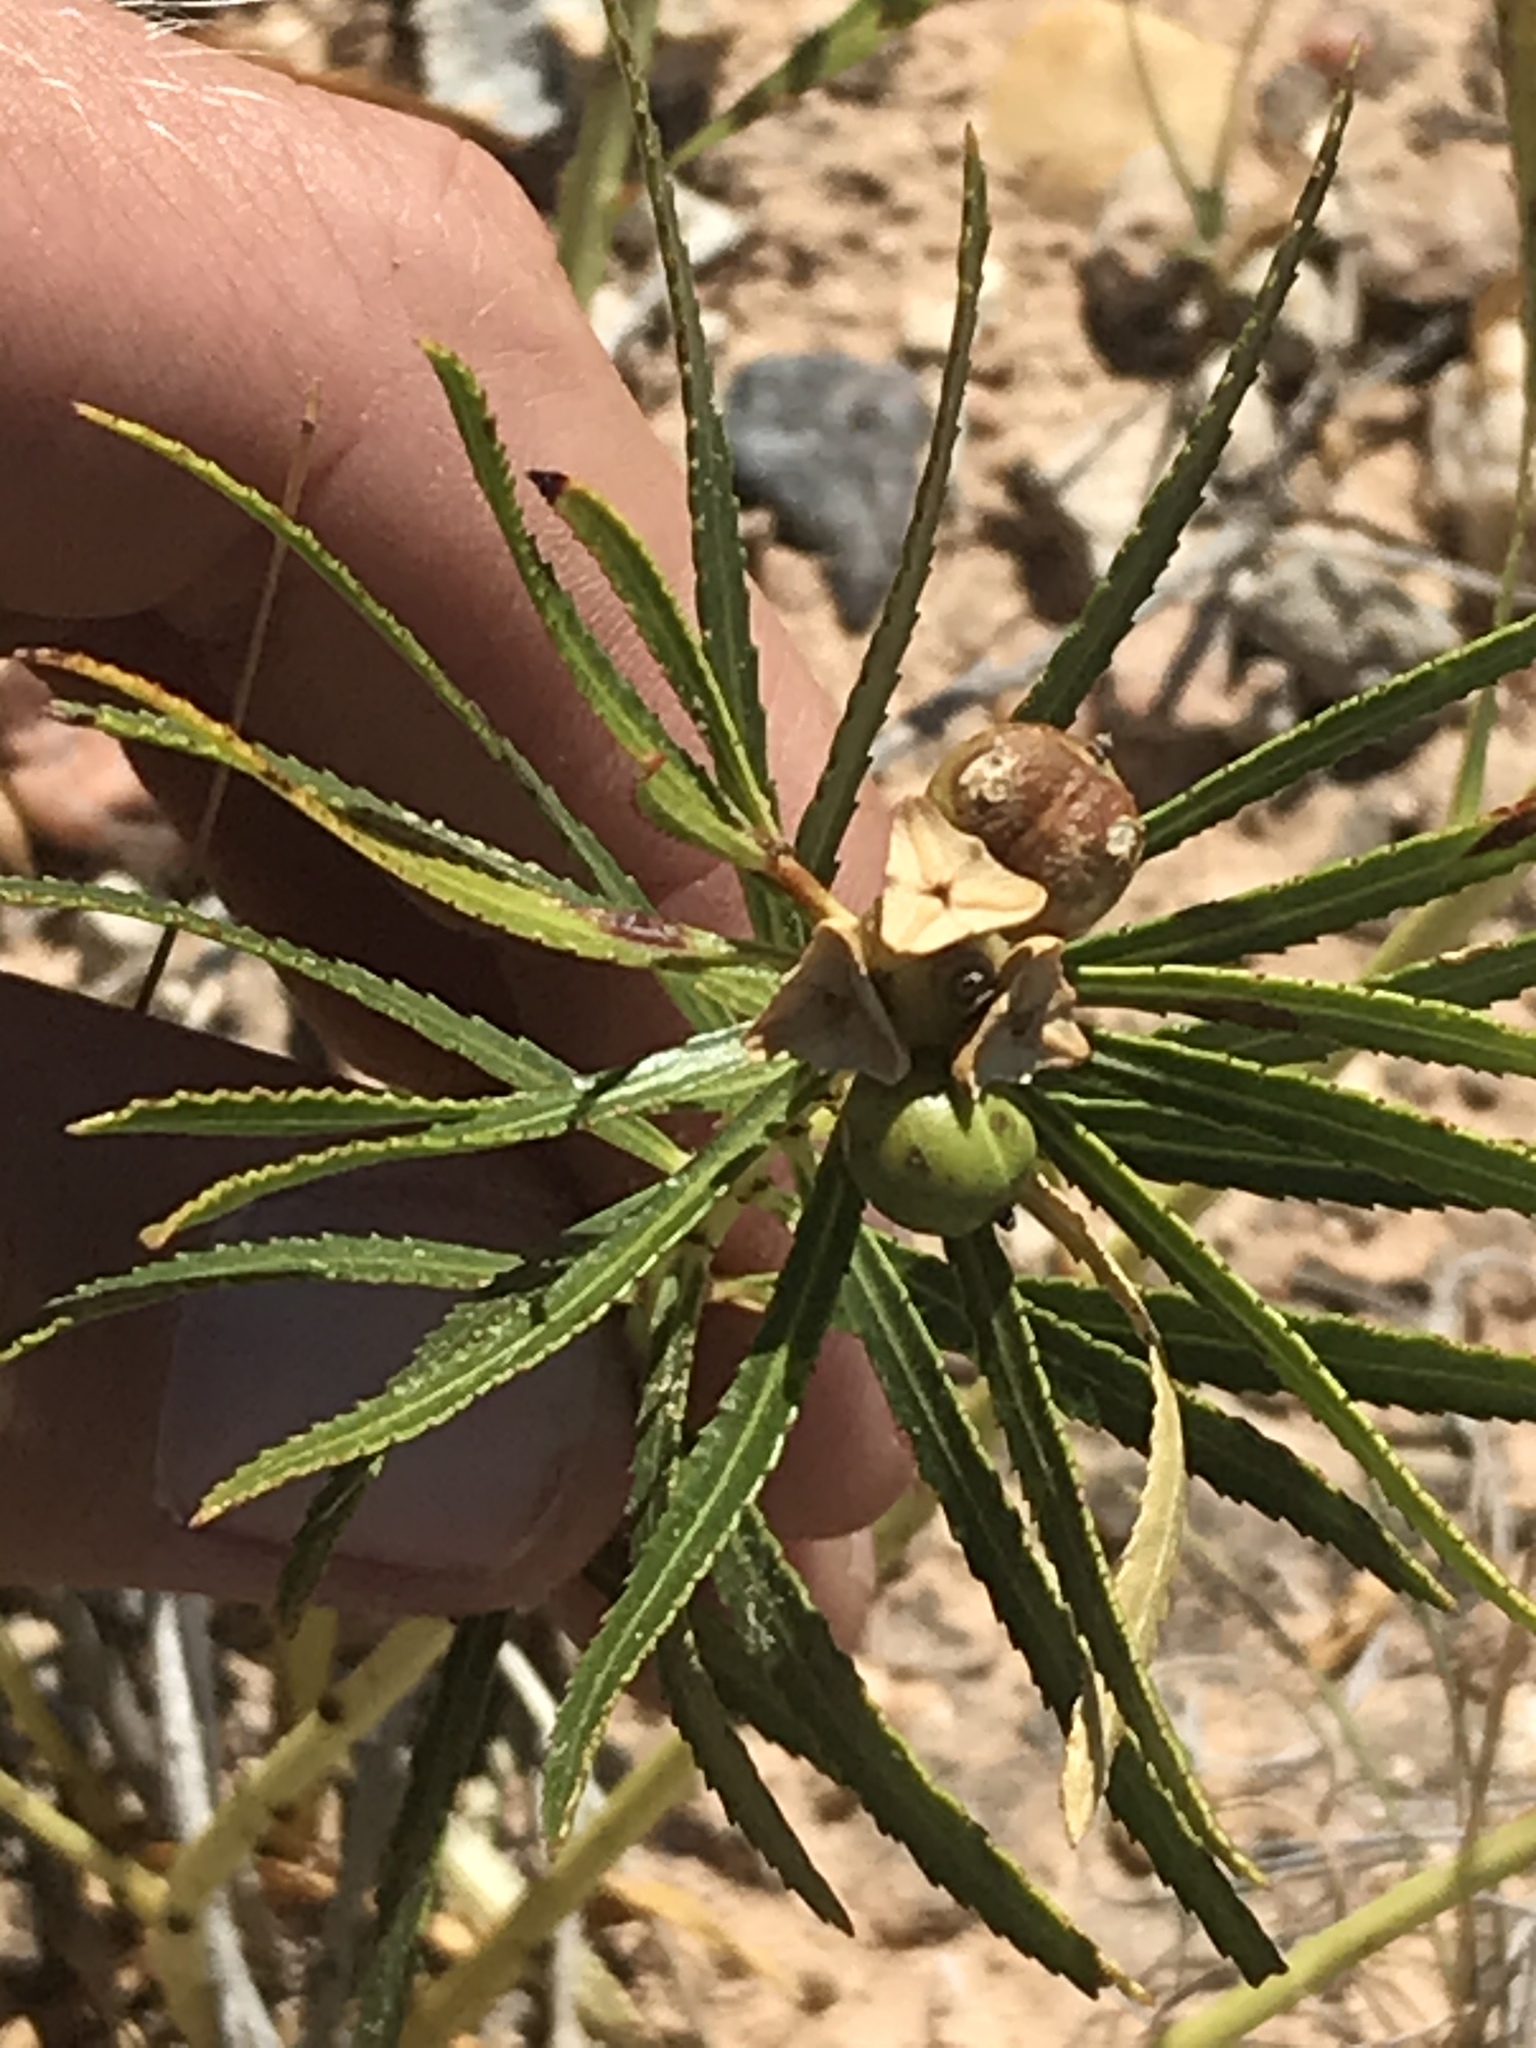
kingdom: Plantae
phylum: Tracheophyta
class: Magnoliopsida
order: Malpighiales
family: Euphorbiaceae
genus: Stillingia
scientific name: Stillingia texana
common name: Texas stillingia
